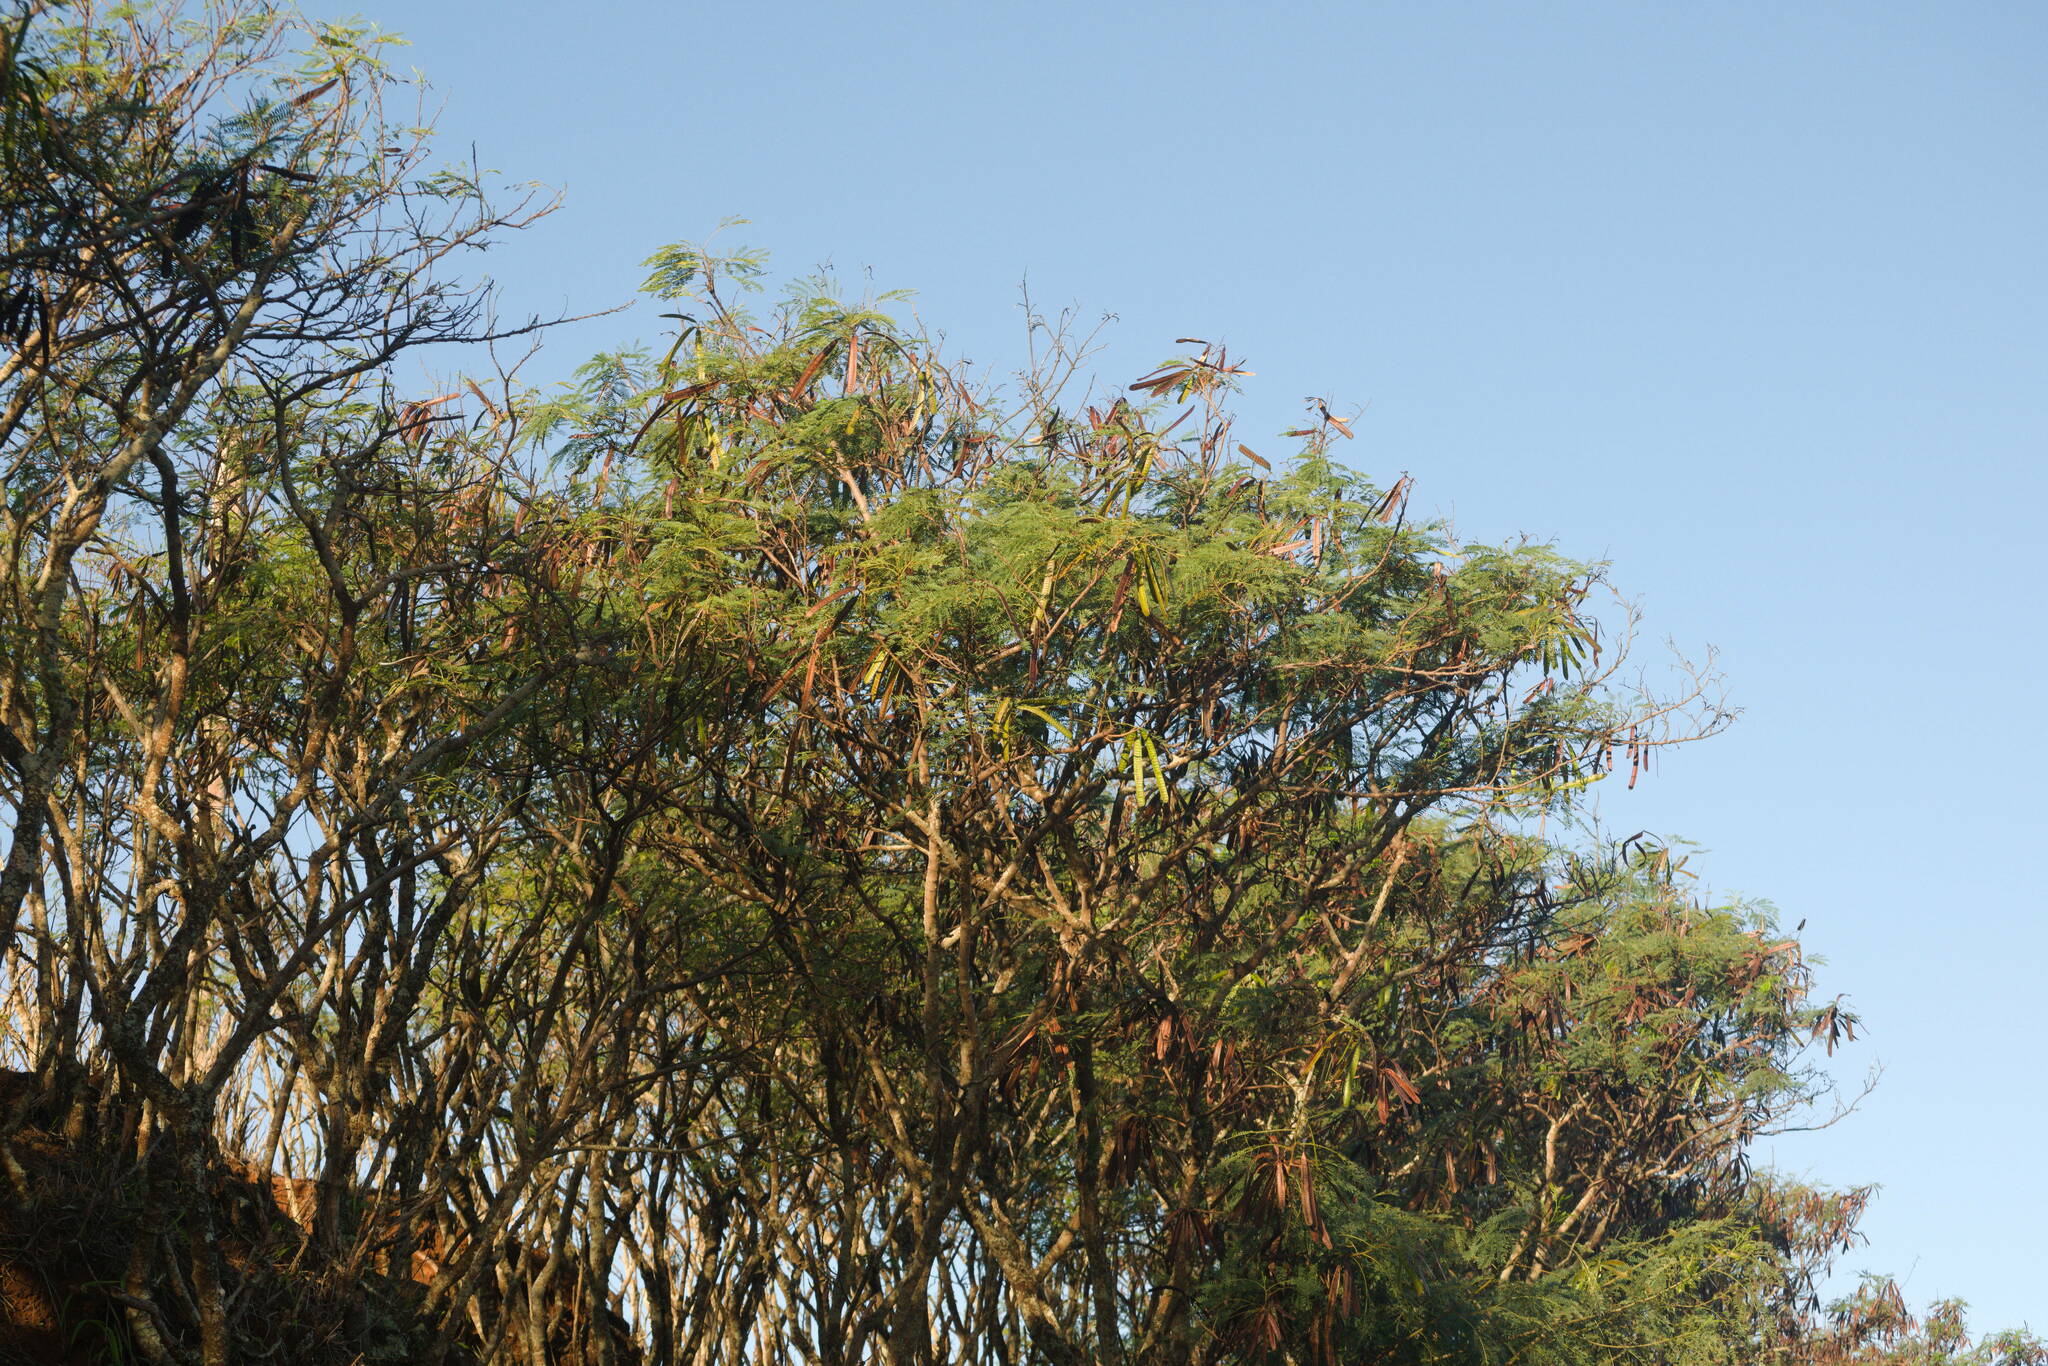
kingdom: Plantae
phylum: Tracheophyta
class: Magnoliopsida
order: Fabales
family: Fabaceae
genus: Leucaena
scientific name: Leucaena leucocephala
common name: White leadtree
